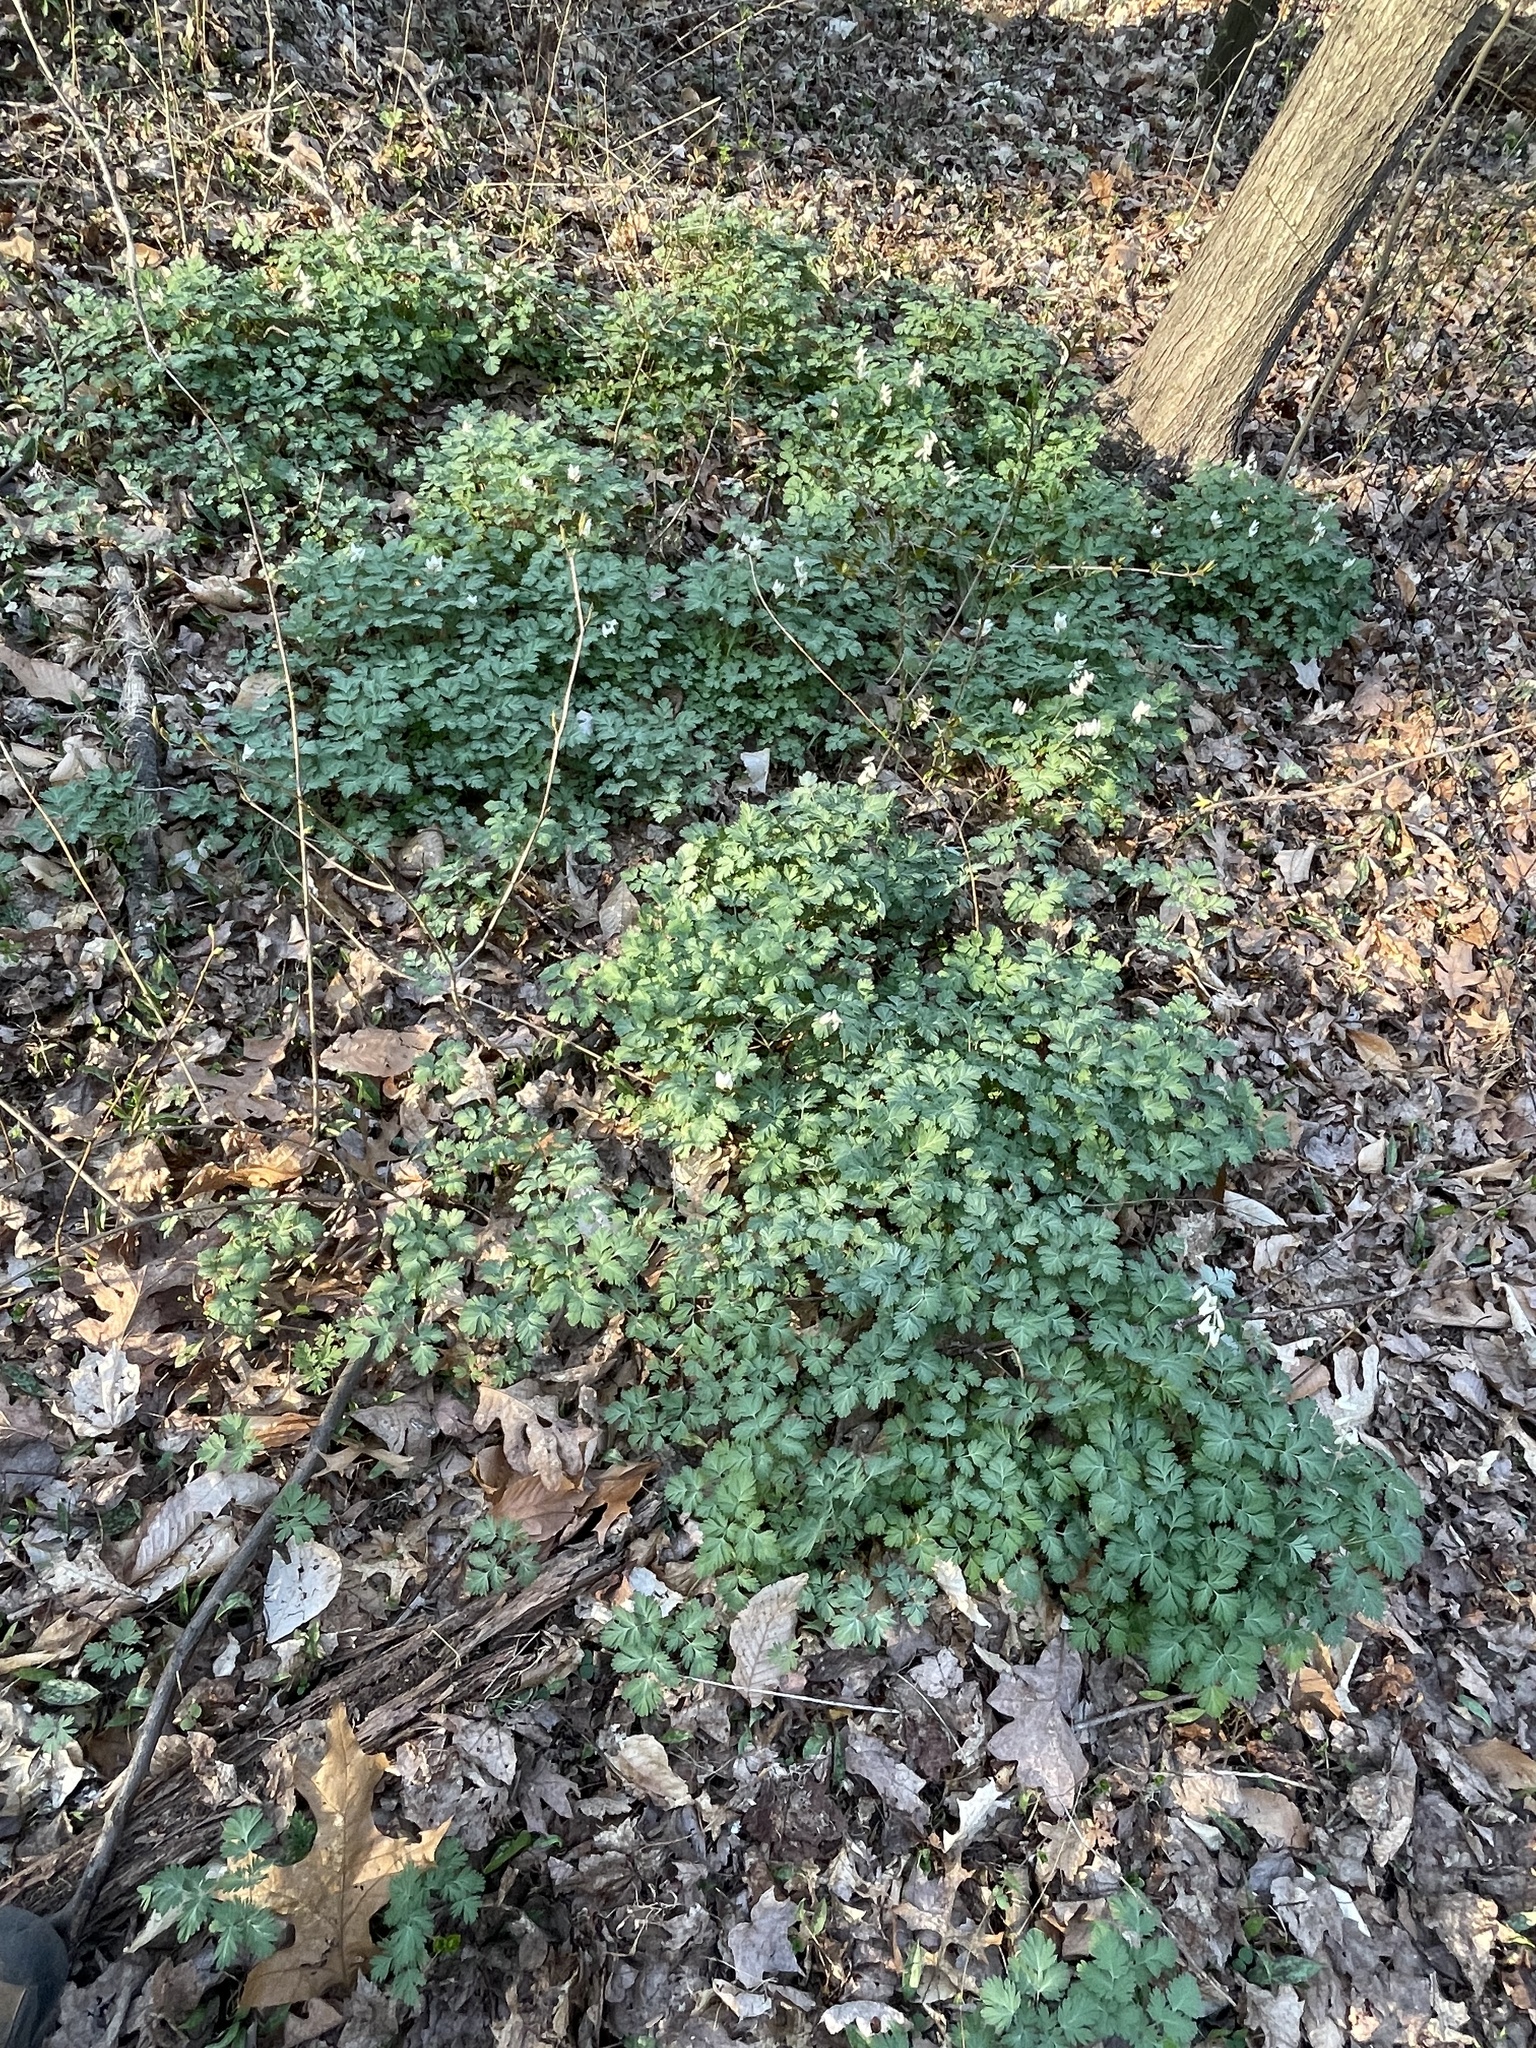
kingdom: Plantae
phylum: Tracheophyta
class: Magnoliopsida
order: Ranunculales
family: Papaveraceae
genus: Dicentra
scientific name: Dicentra cucullaria
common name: Dutchman's breeches
